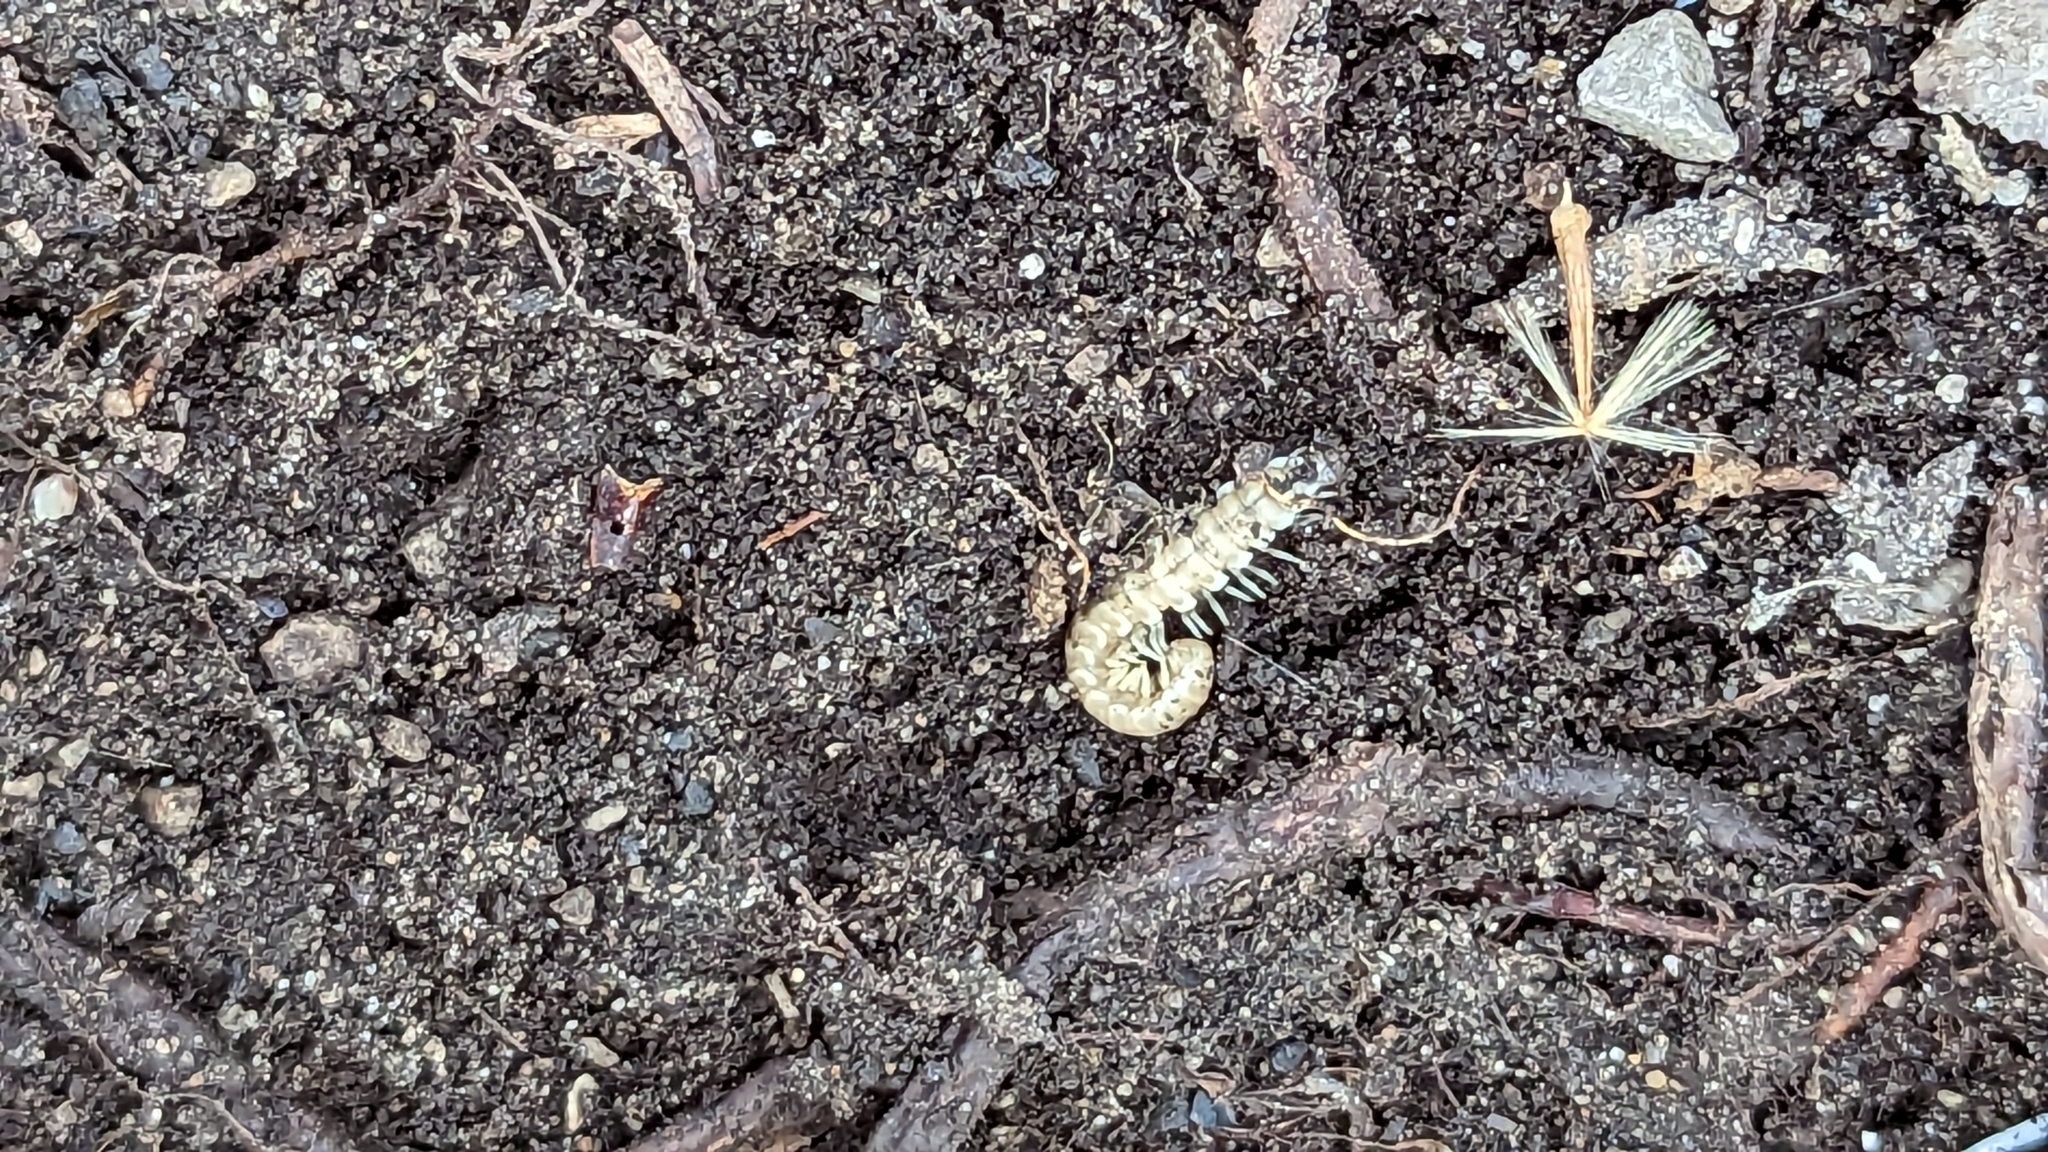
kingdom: Animalia
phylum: Arthropoda
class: Diplopoda
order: Polydesmida
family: Xystodesmidae
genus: Nannaria
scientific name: Nannaria terricola
